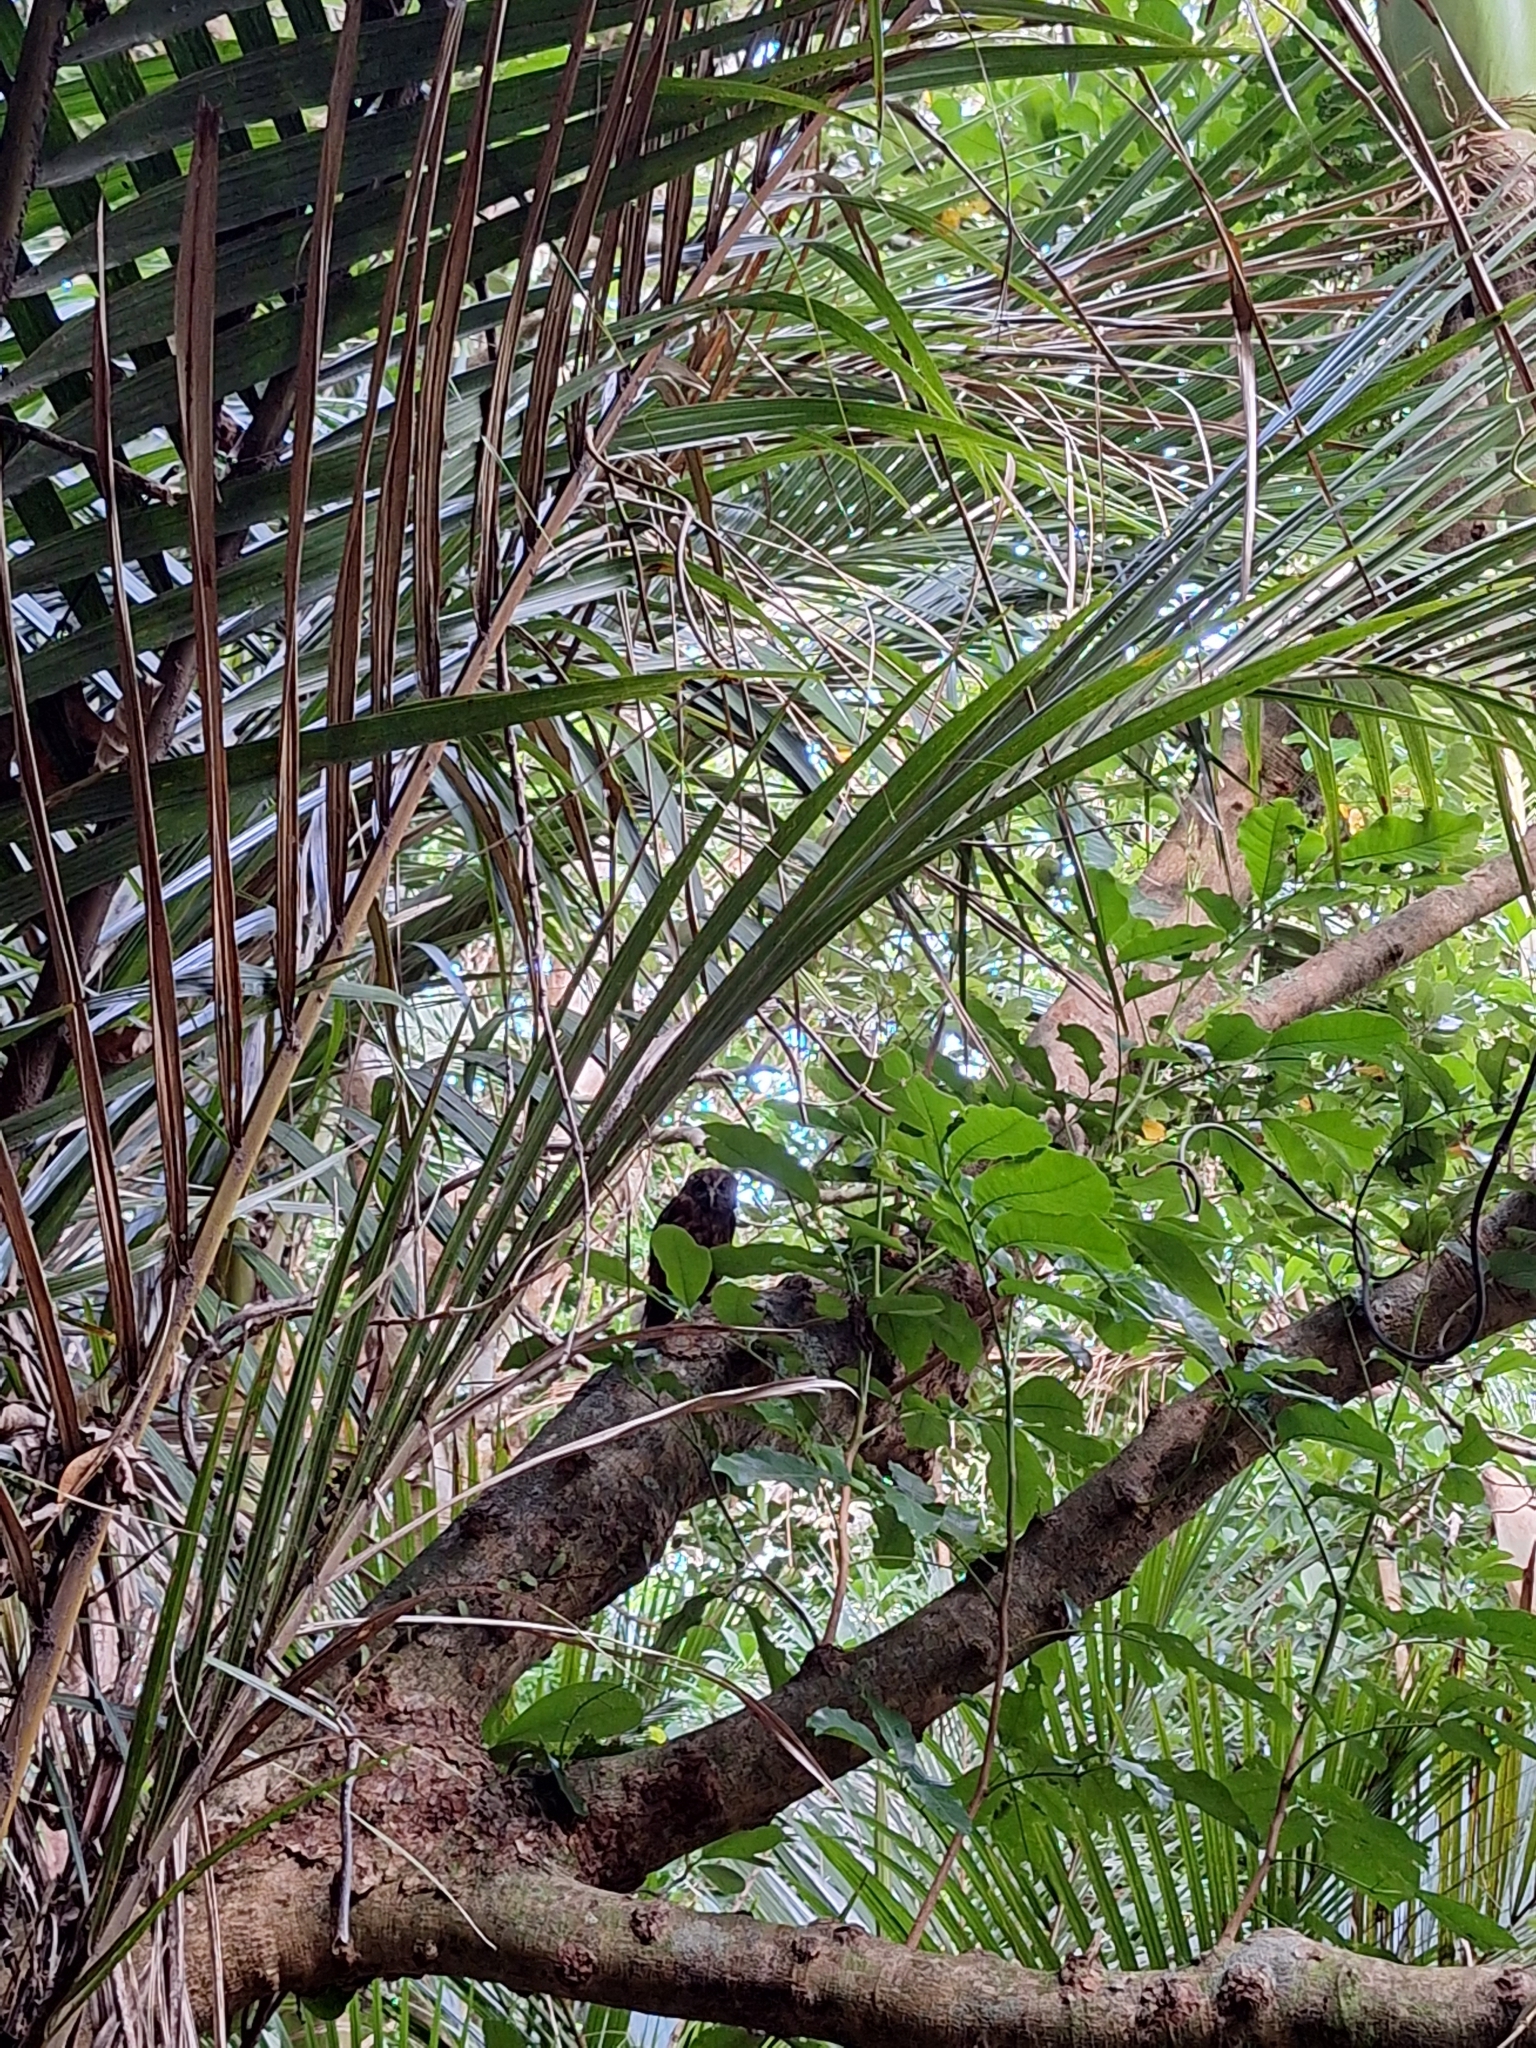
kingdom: Animalia
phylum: Chordata
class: Aves
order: Strigiformes
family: Strigidae
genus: Ninox
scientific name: Ninox novaeseelandiae
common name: Morepork
